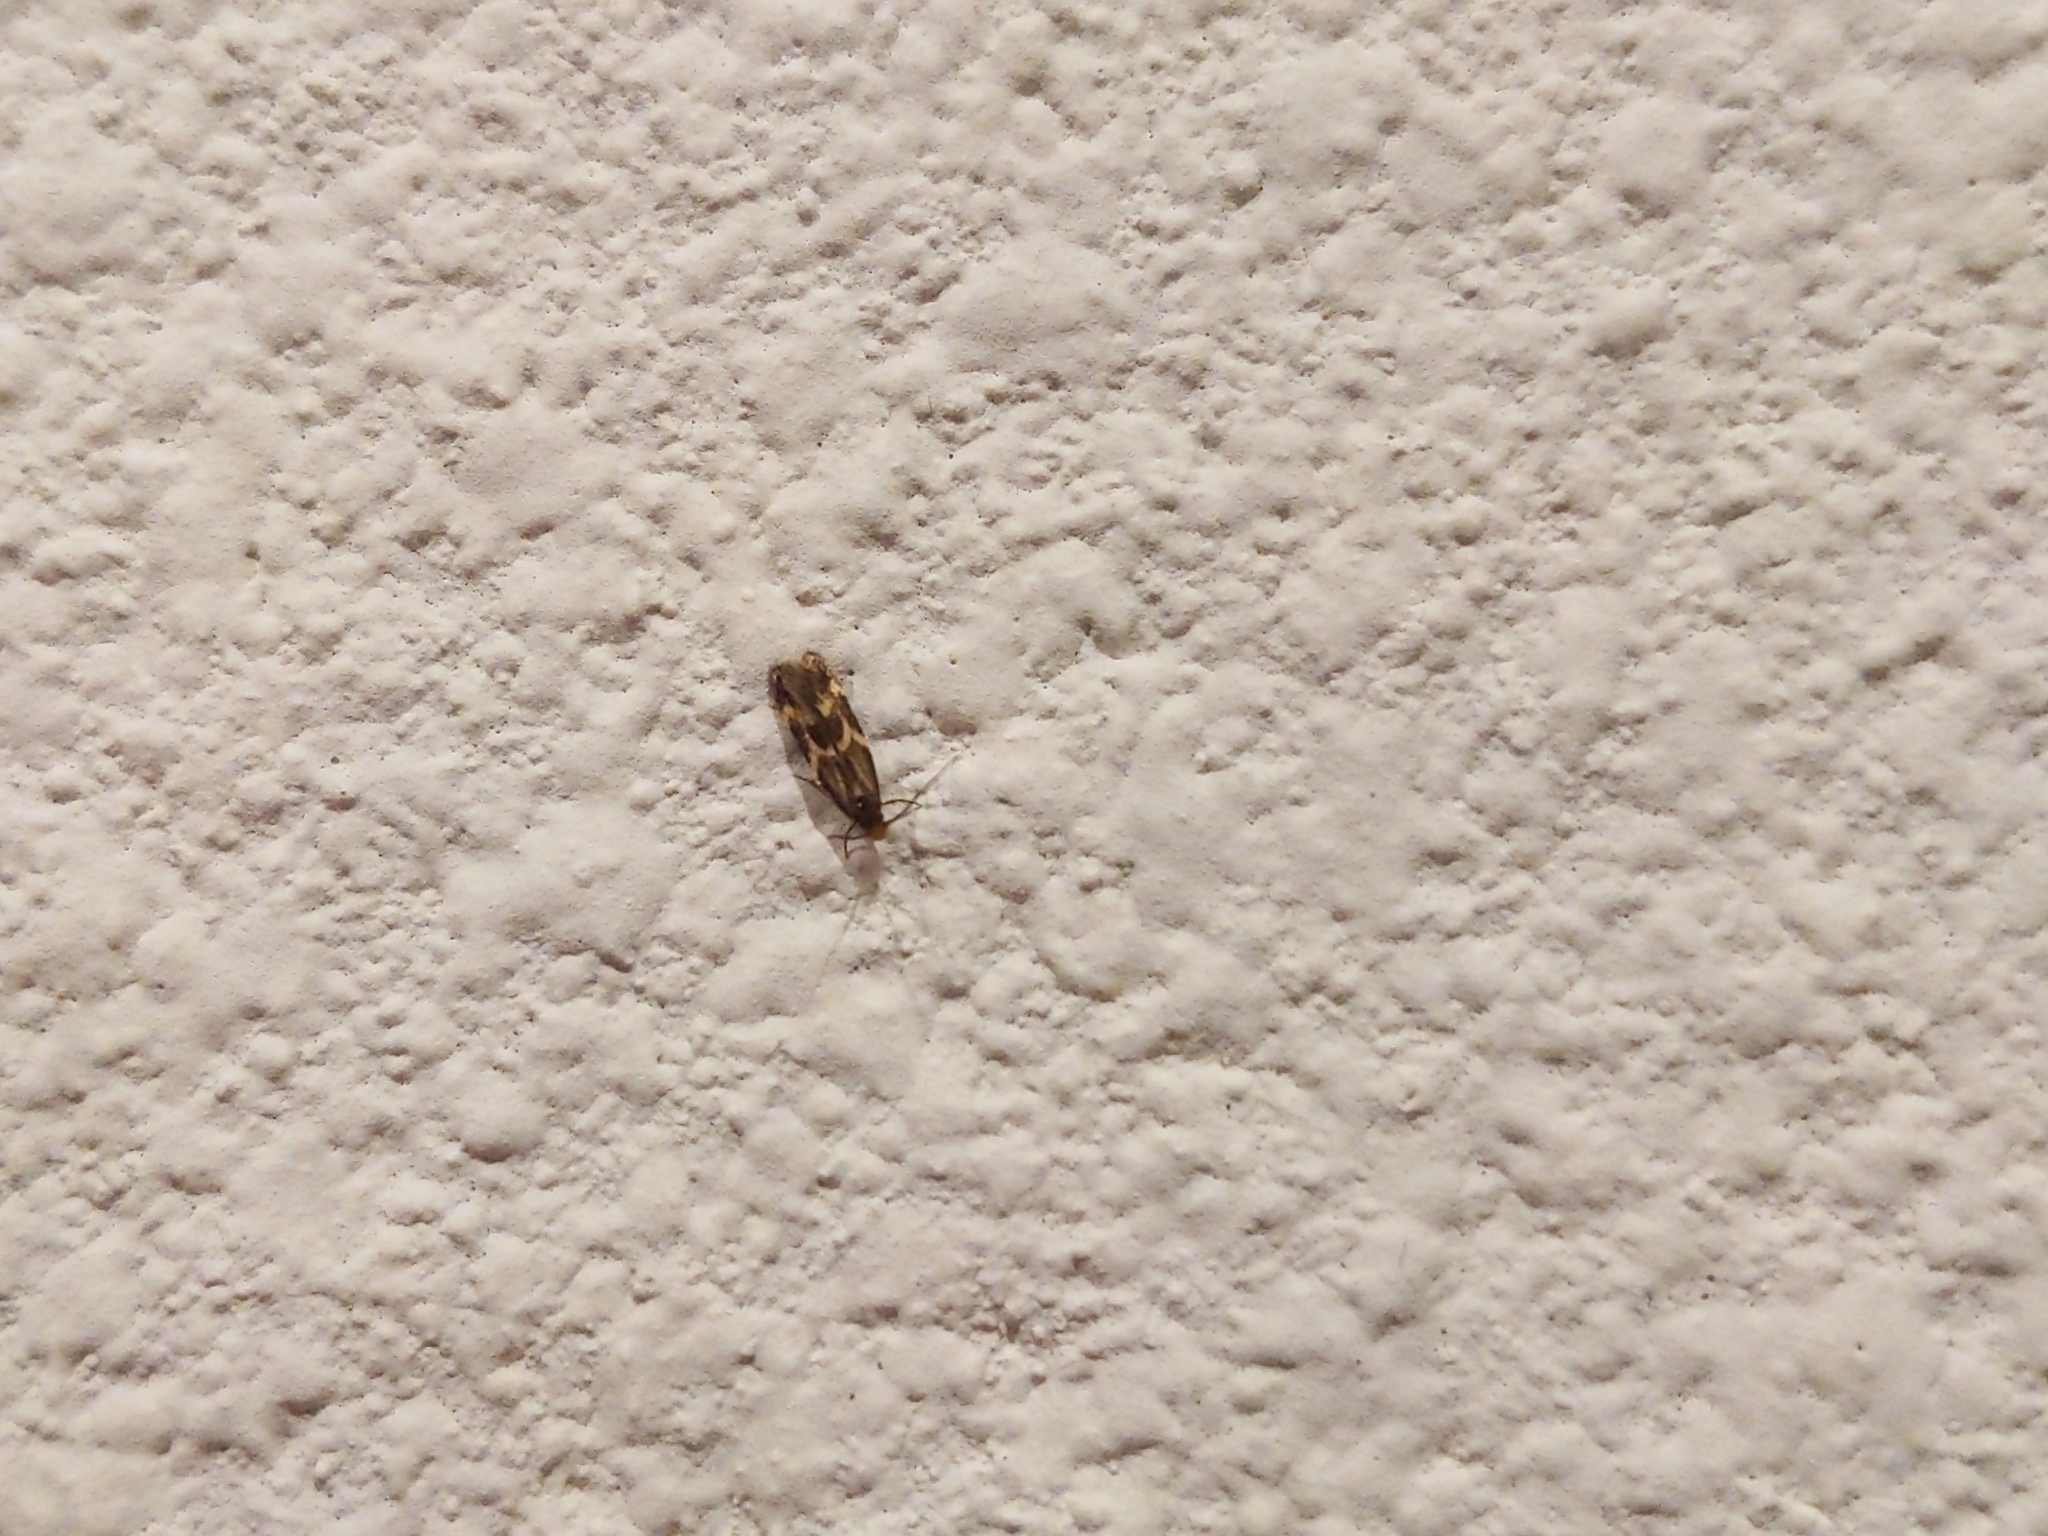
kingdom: Animalia
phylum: Arthropoda
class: Insecta
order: Lepidoptera
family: Tineidae
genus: Oinophila
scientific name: Oinophila v-flava
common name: Yellow v moth
